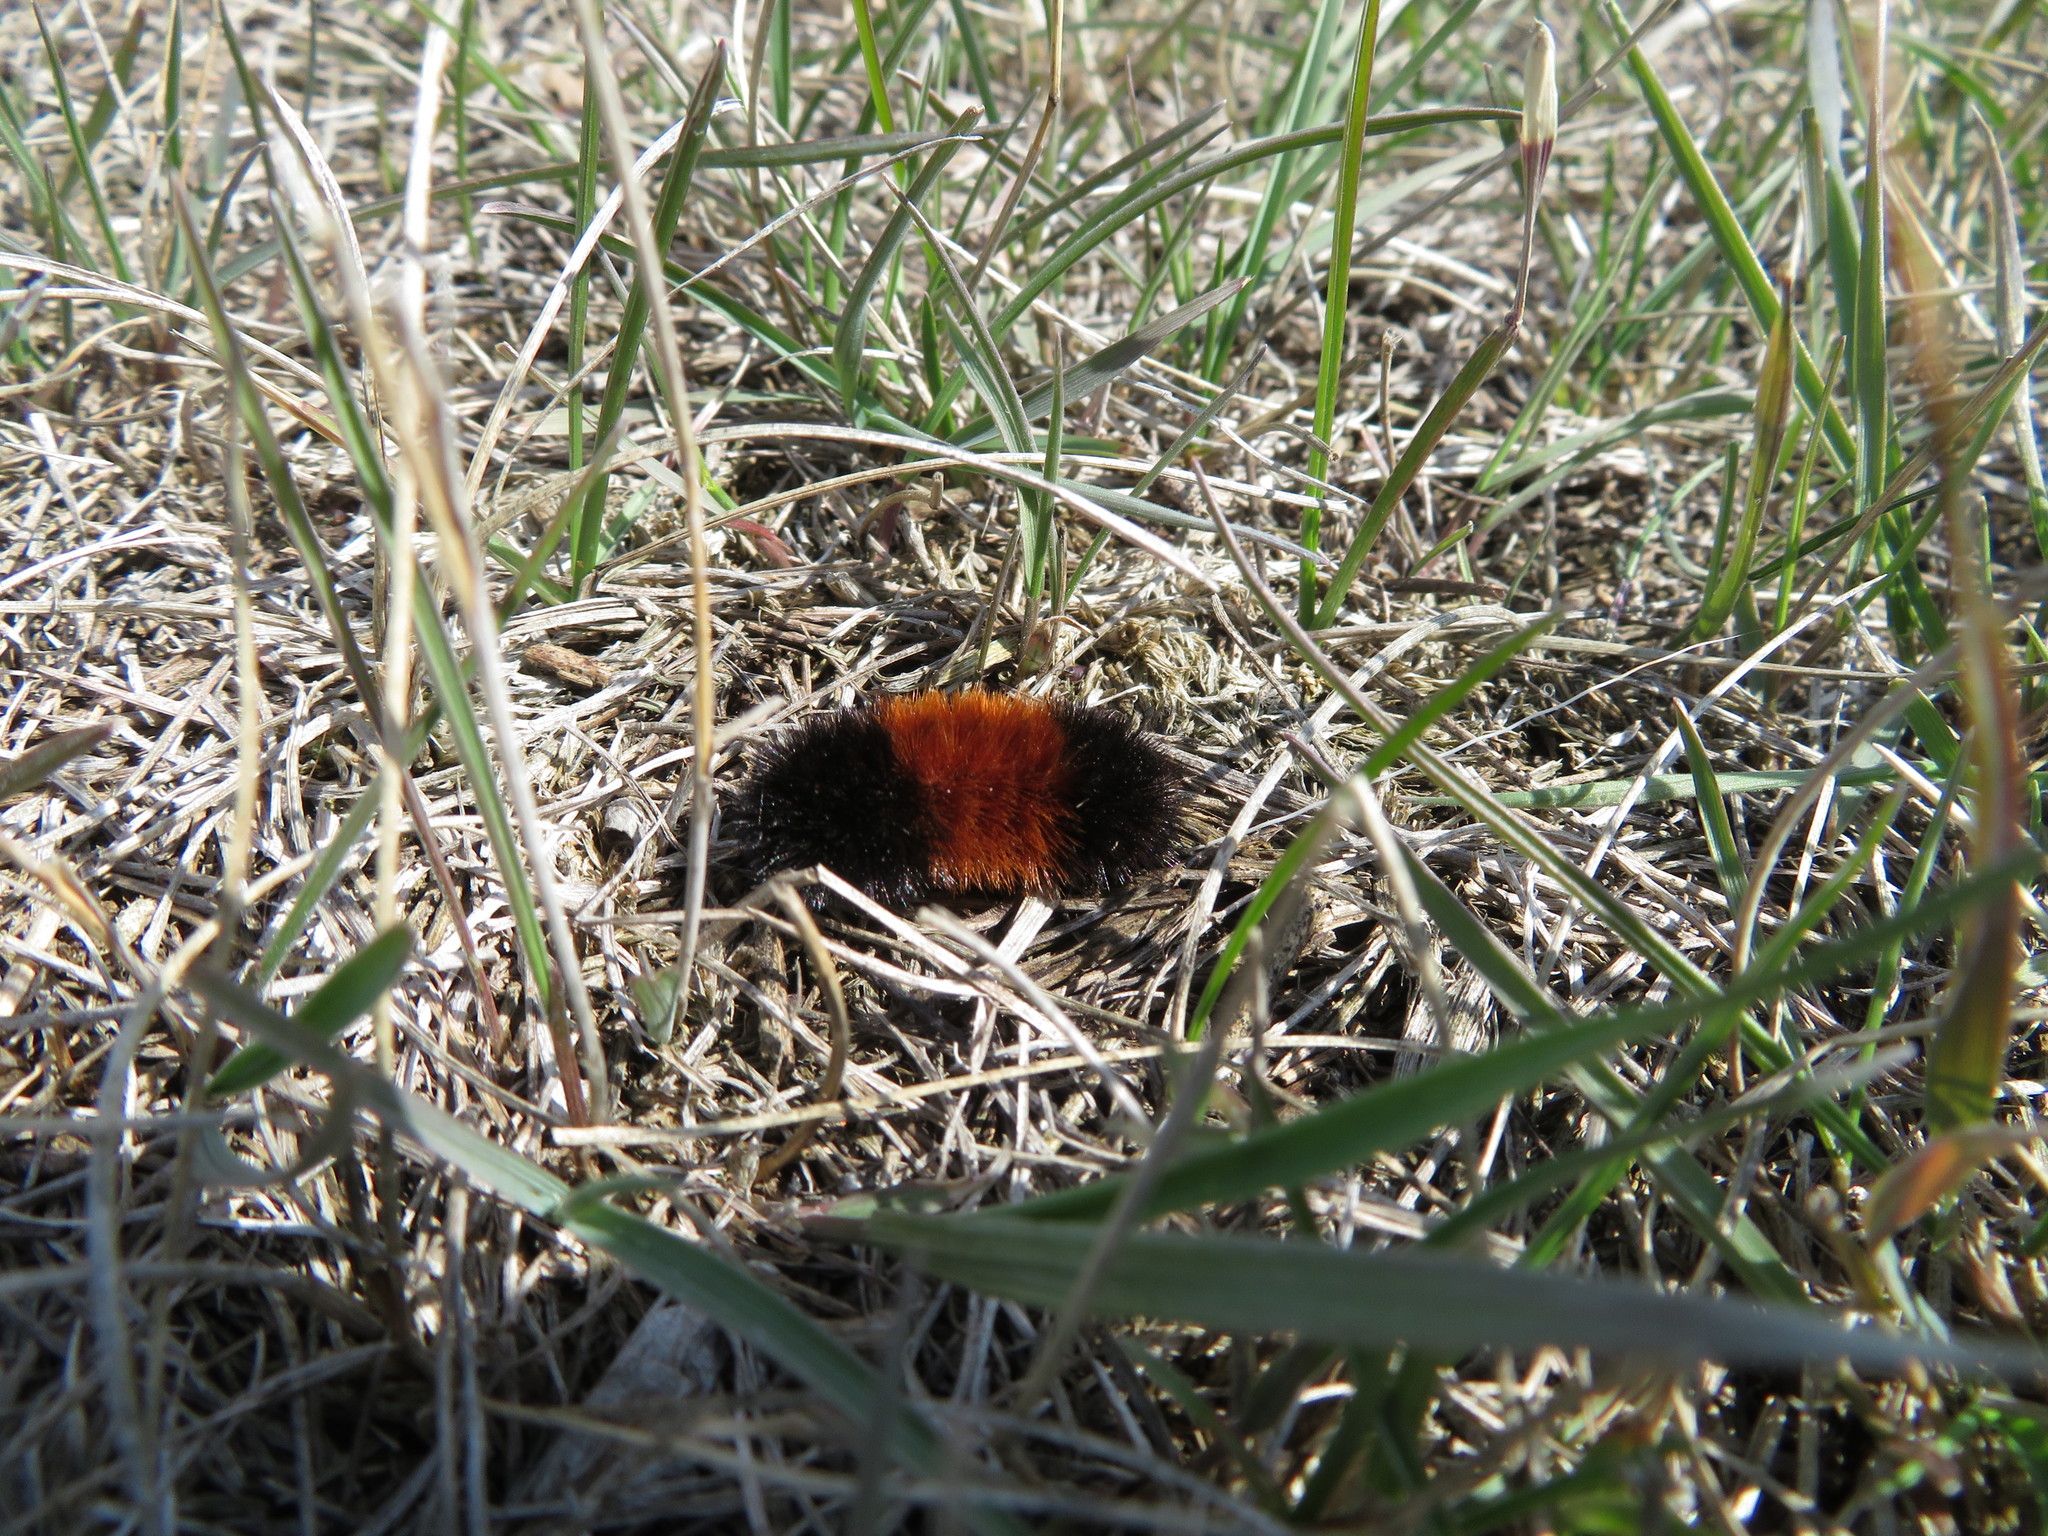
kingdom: Animalia
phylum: Arthropoda
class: Insecta
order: Lepidoptera
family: Erebidae
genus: Pyrrharctia
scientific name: Pyrrharctia isabella
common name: Isabella tiger moth
